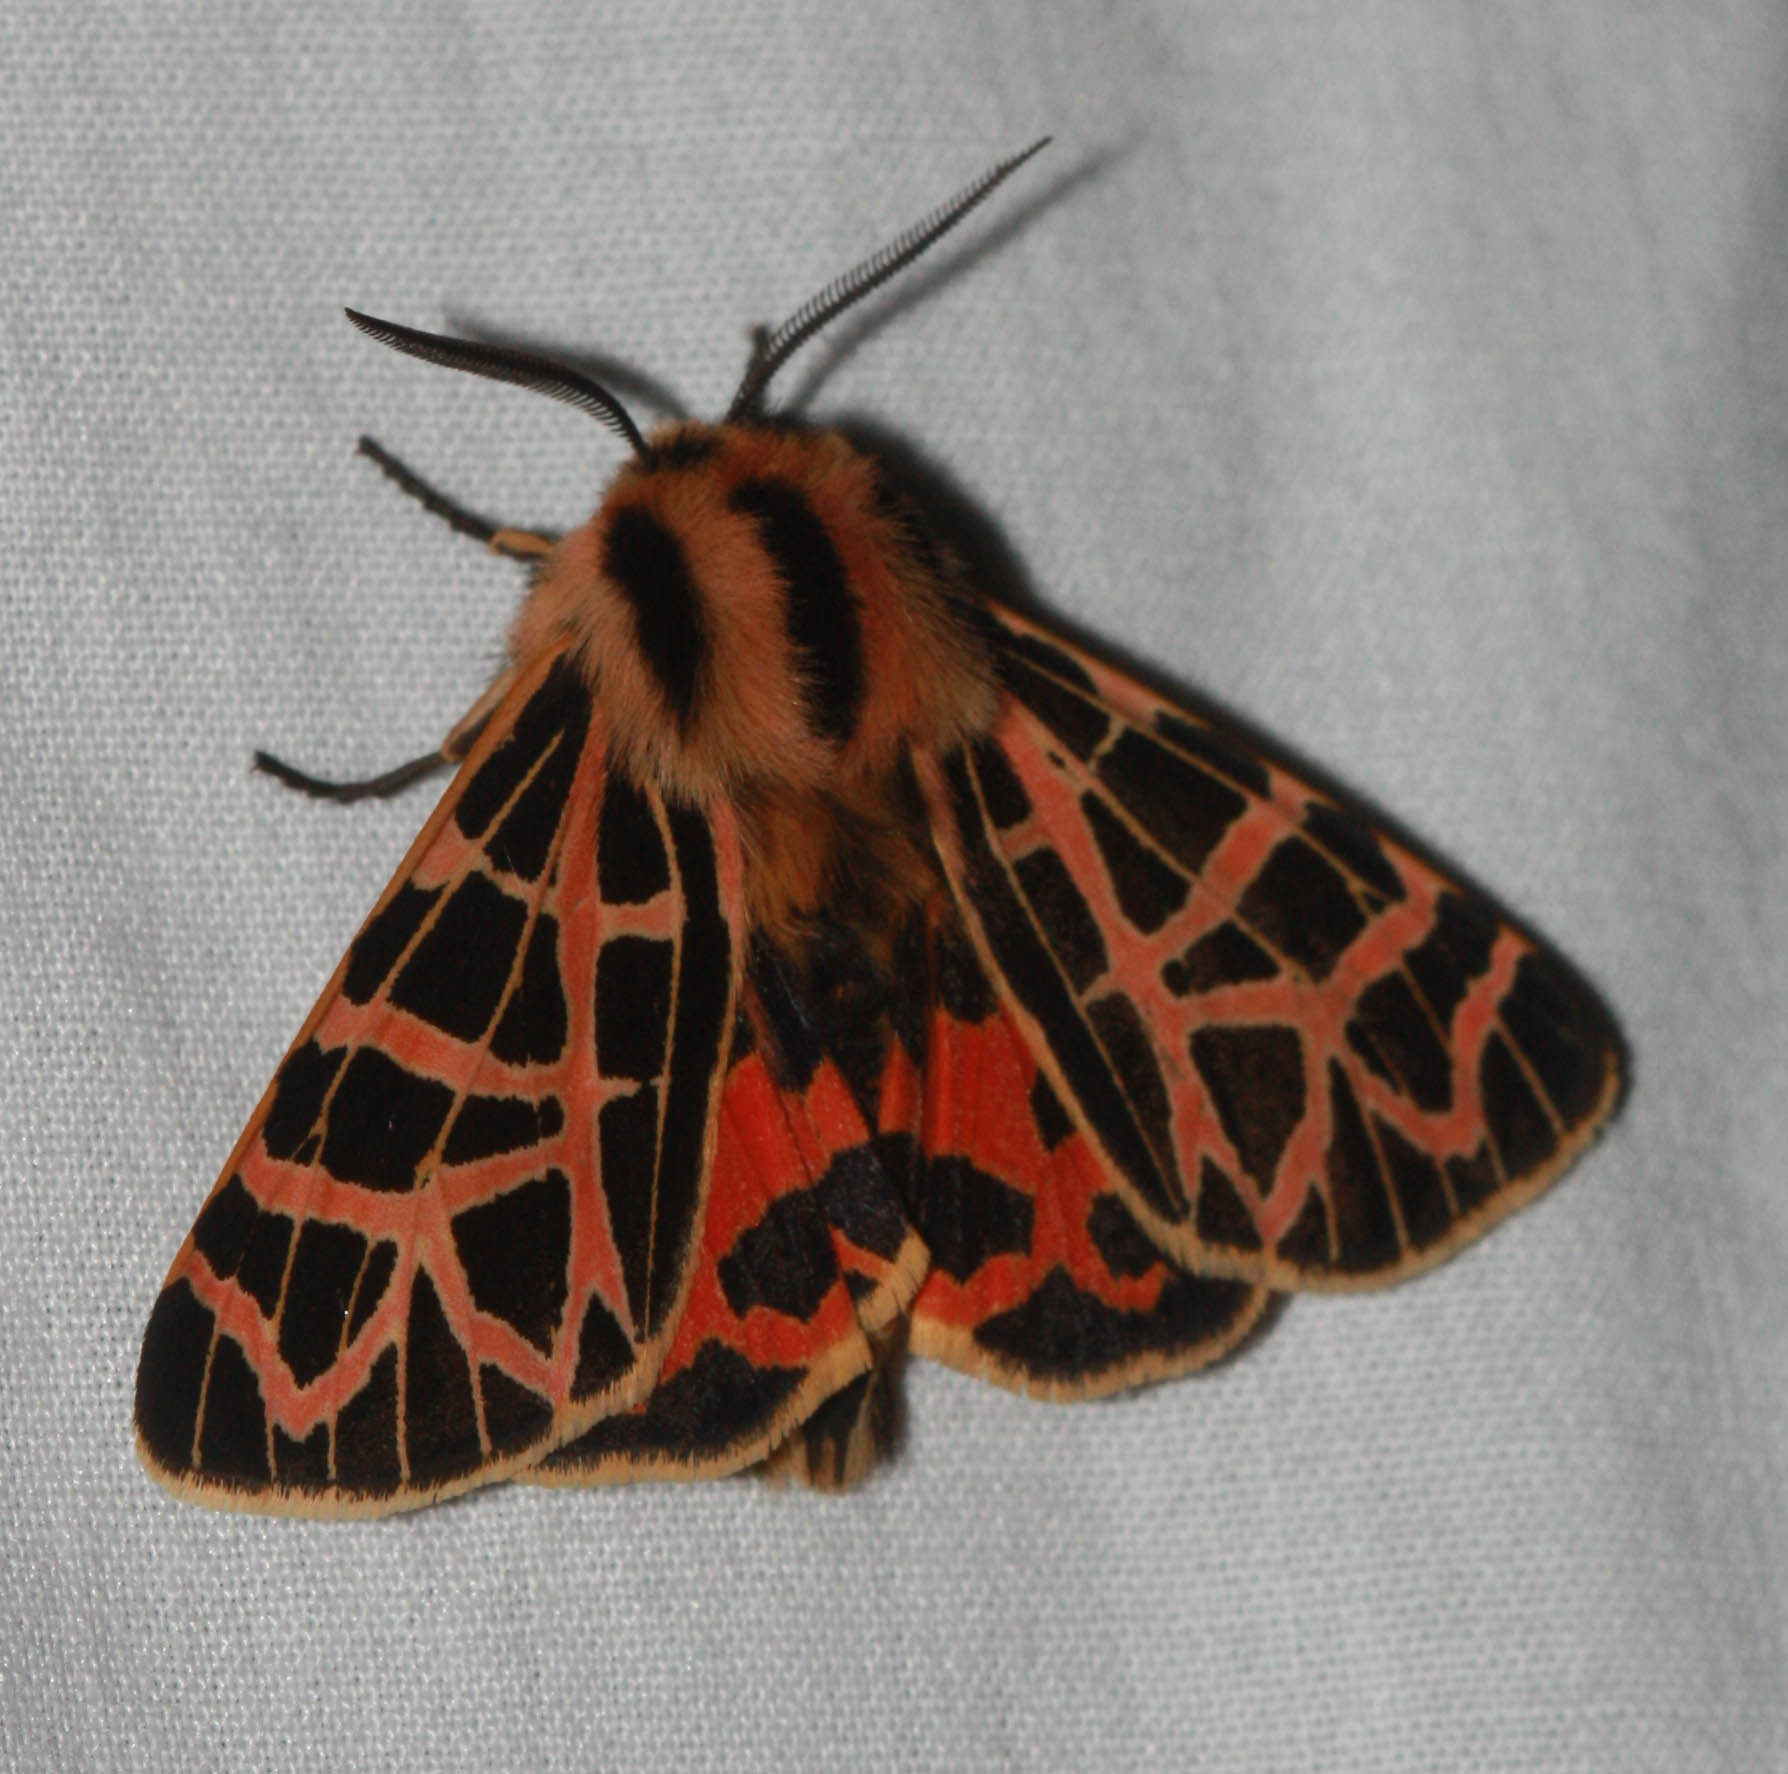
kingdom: Animalia
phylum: Arthropoda
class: Insecta
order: Lepidoptera
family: Erebidae
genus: Apantesis
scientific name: Apantesis
